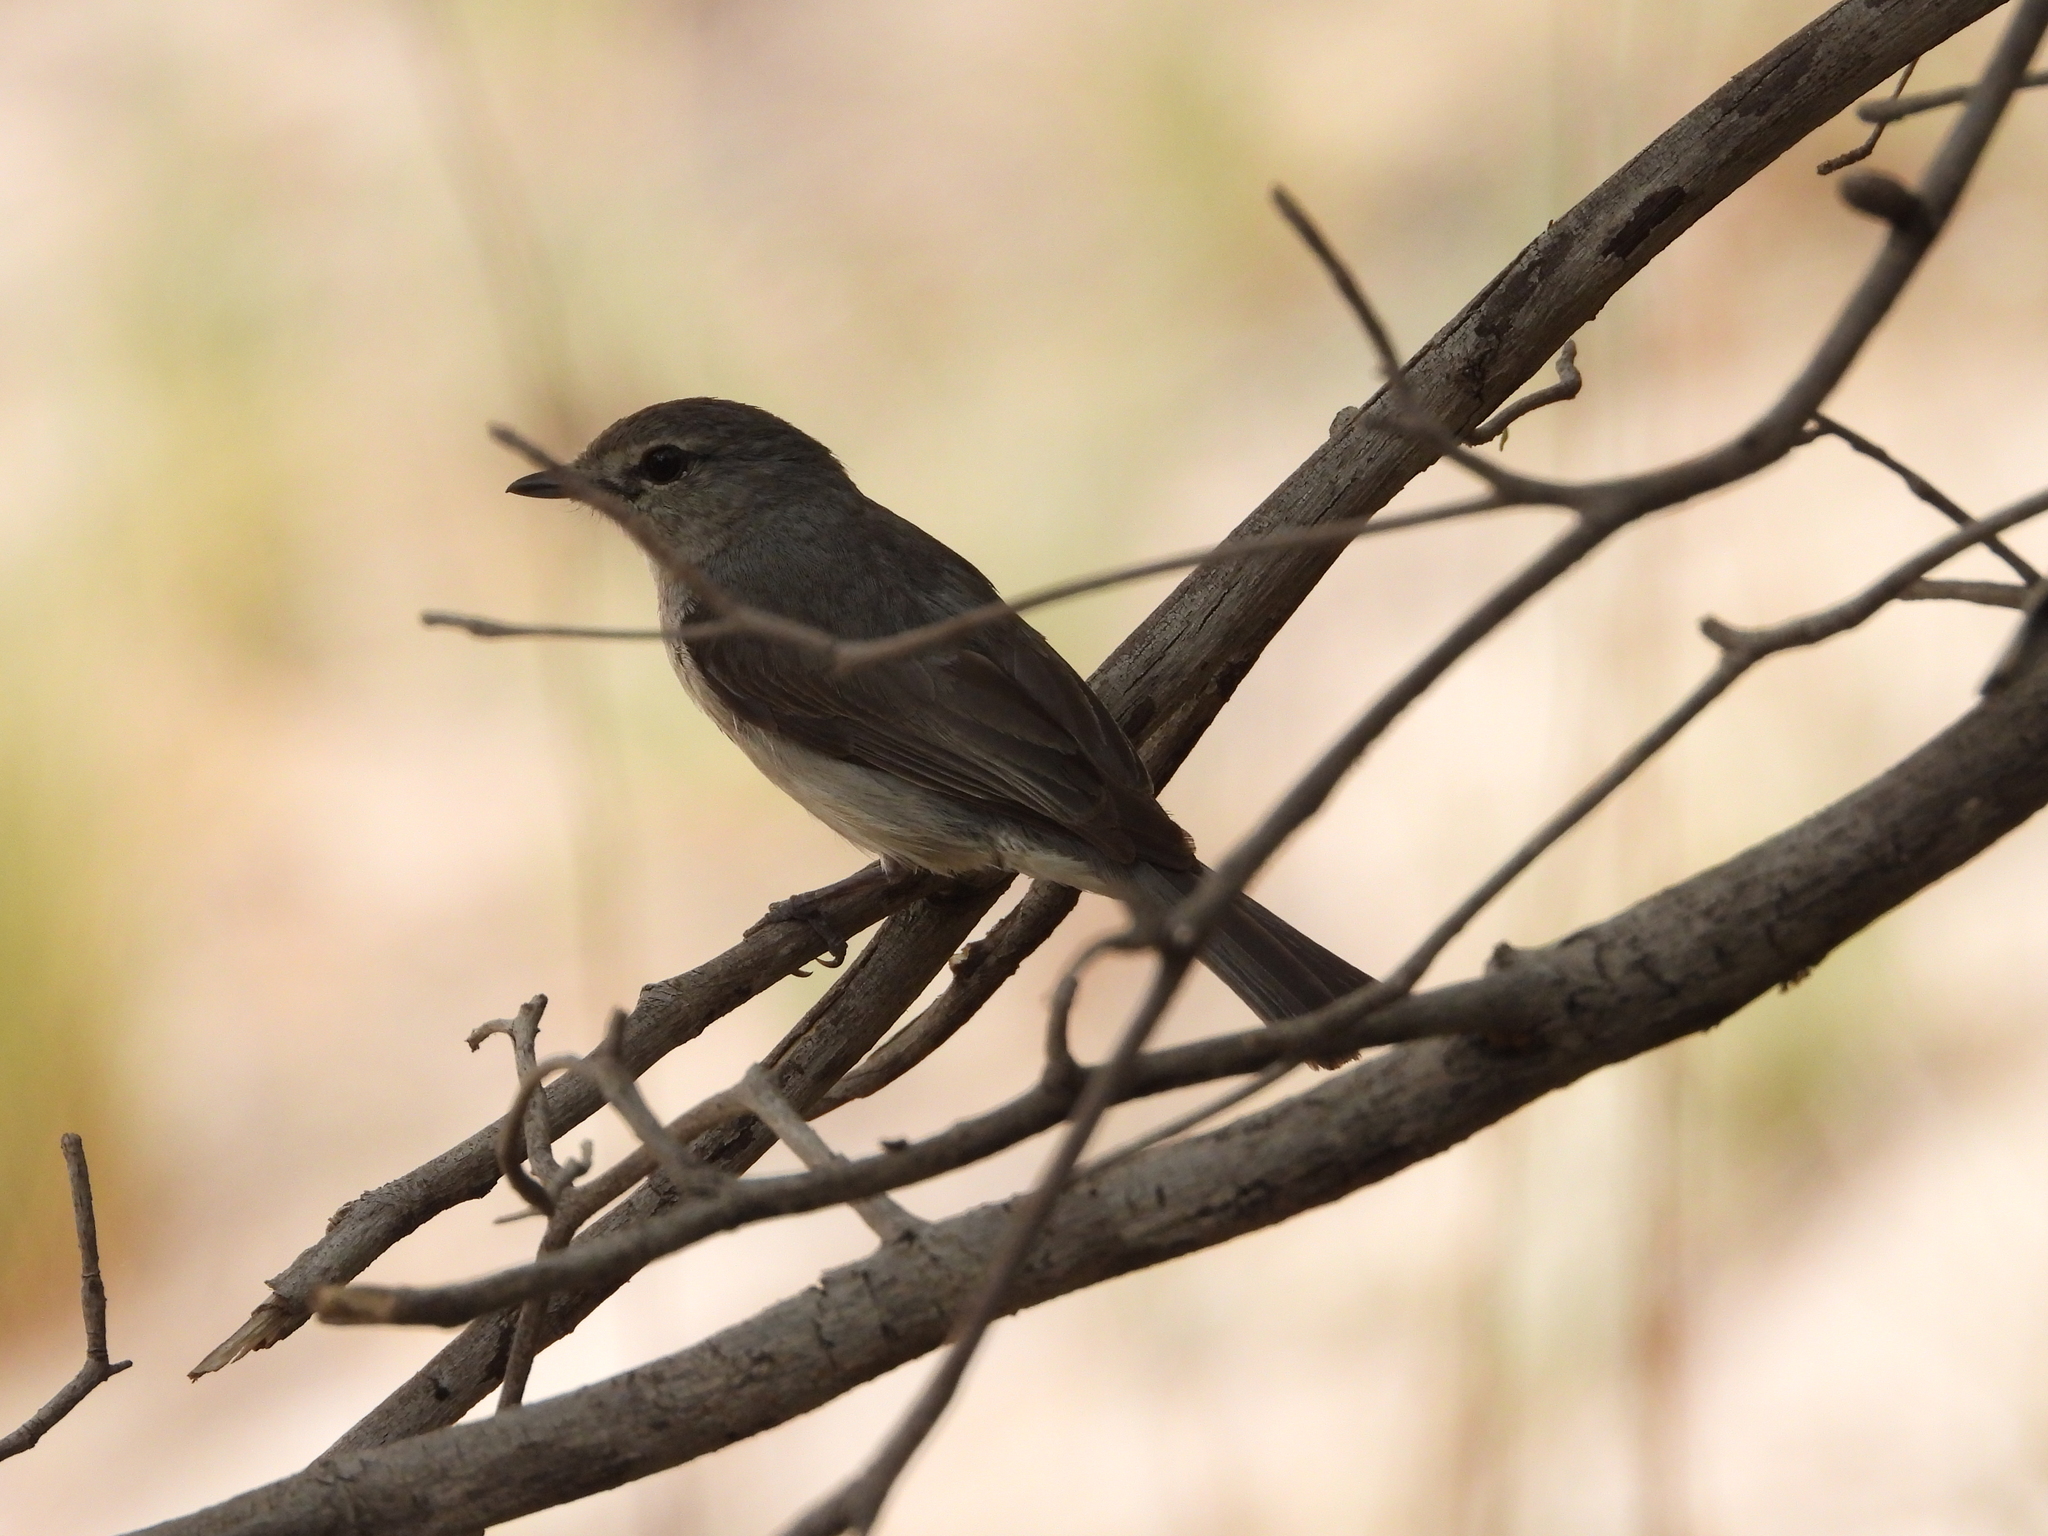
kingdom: Animalia
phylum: Chordata
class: Aves
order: Passeriformes
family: Muscicapidae
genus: Muscicapa
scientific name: Muscicapa caerulescens
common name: Ashy flycatcher
